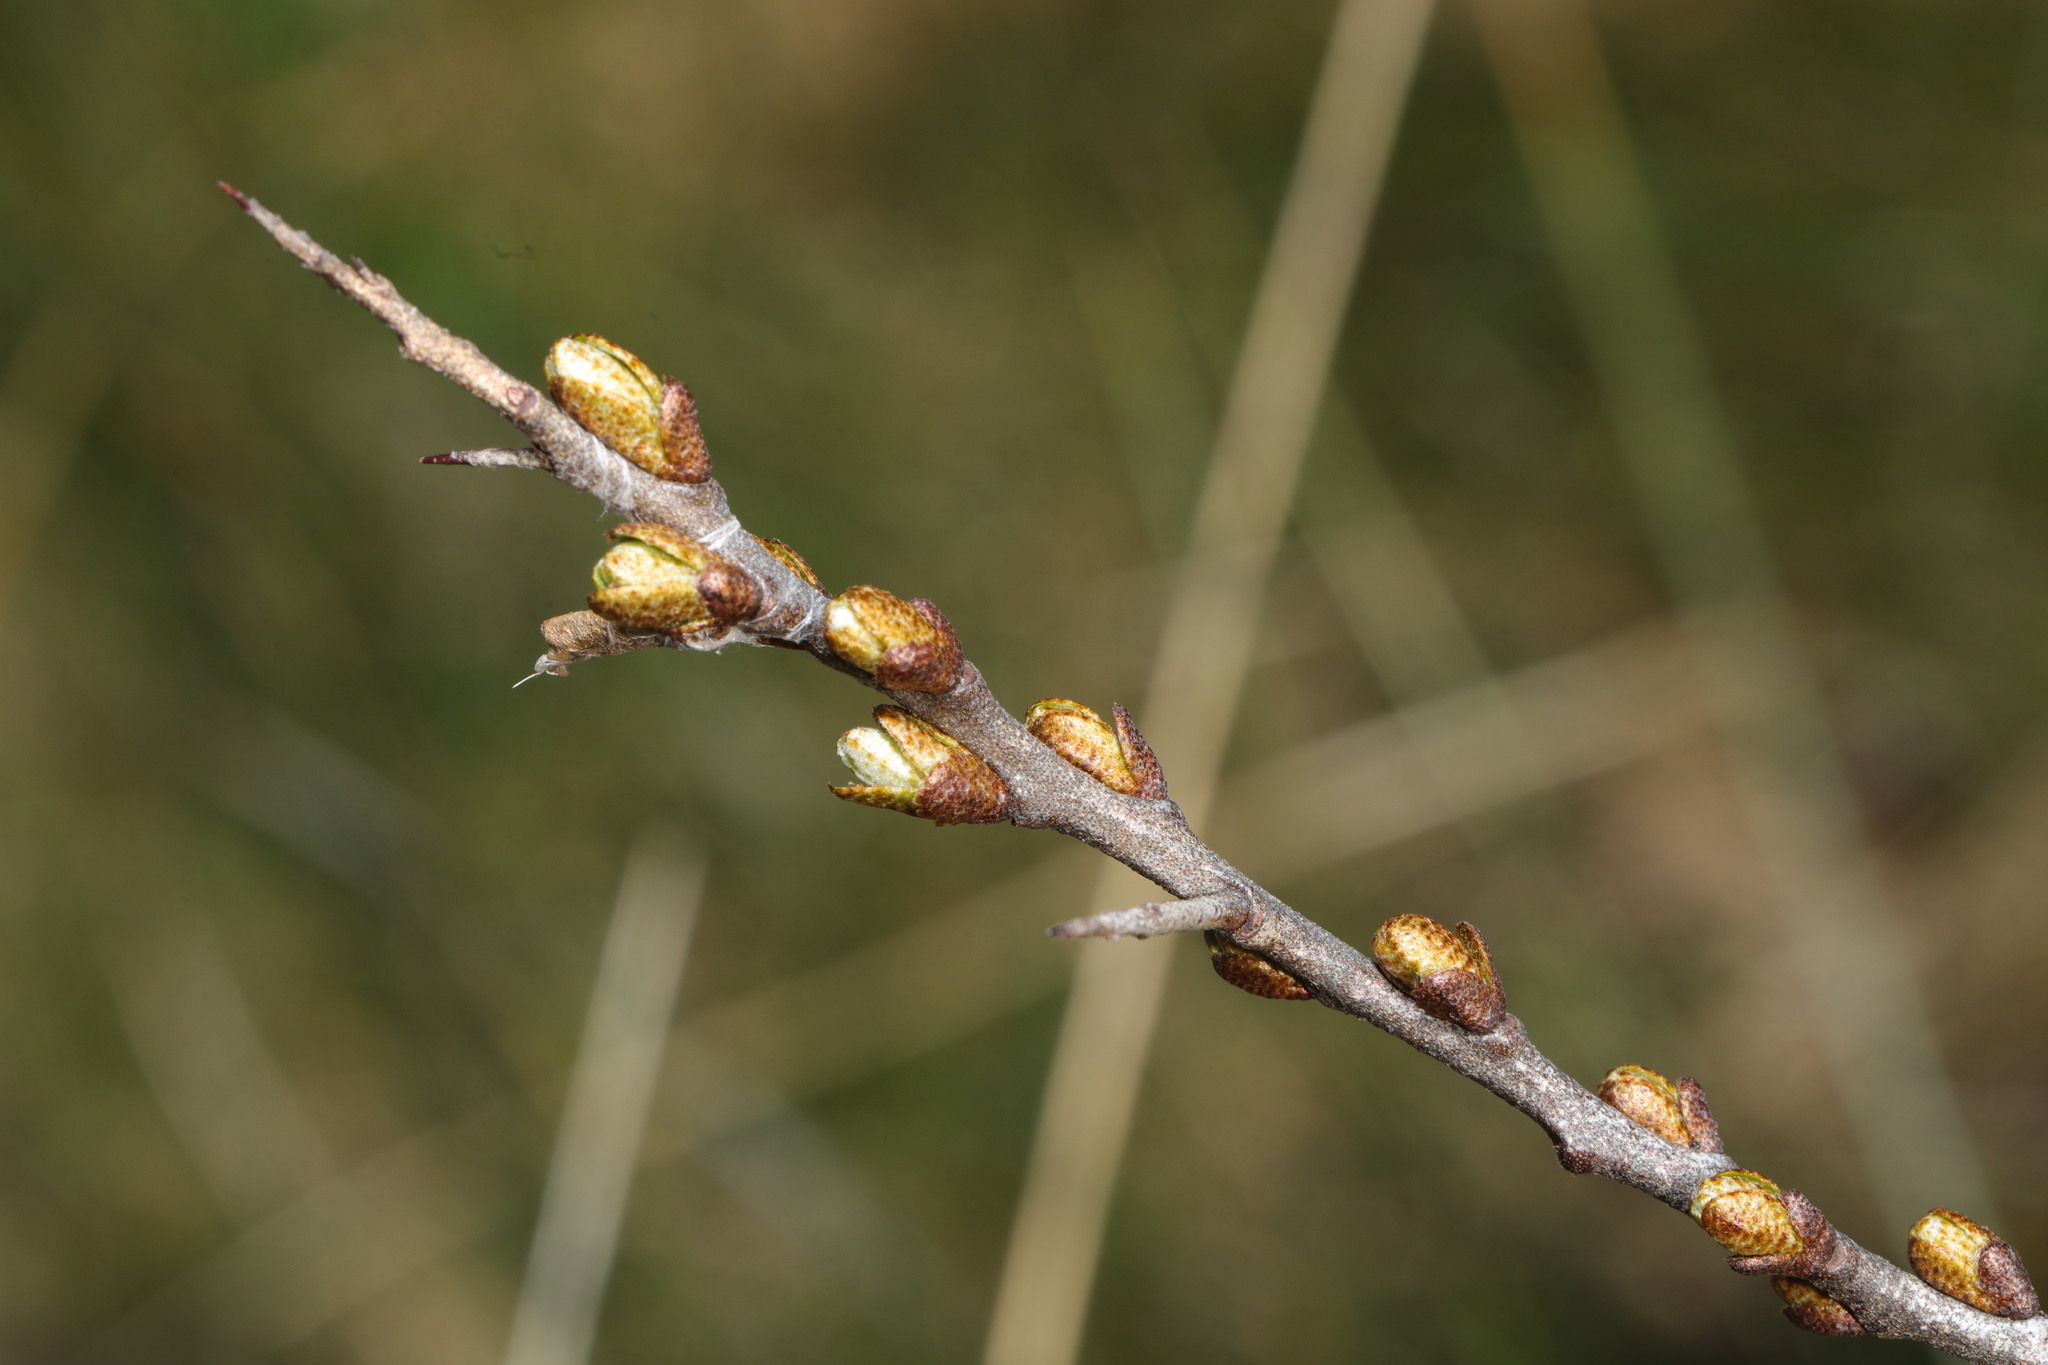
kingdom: Plantae
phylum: Tracheophyta
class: Magnoliopsida
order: Rosales
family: Elaeagnaceae
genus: Hippophae
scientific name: Hippophae rhamnoides
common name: Sea-buckthorn
